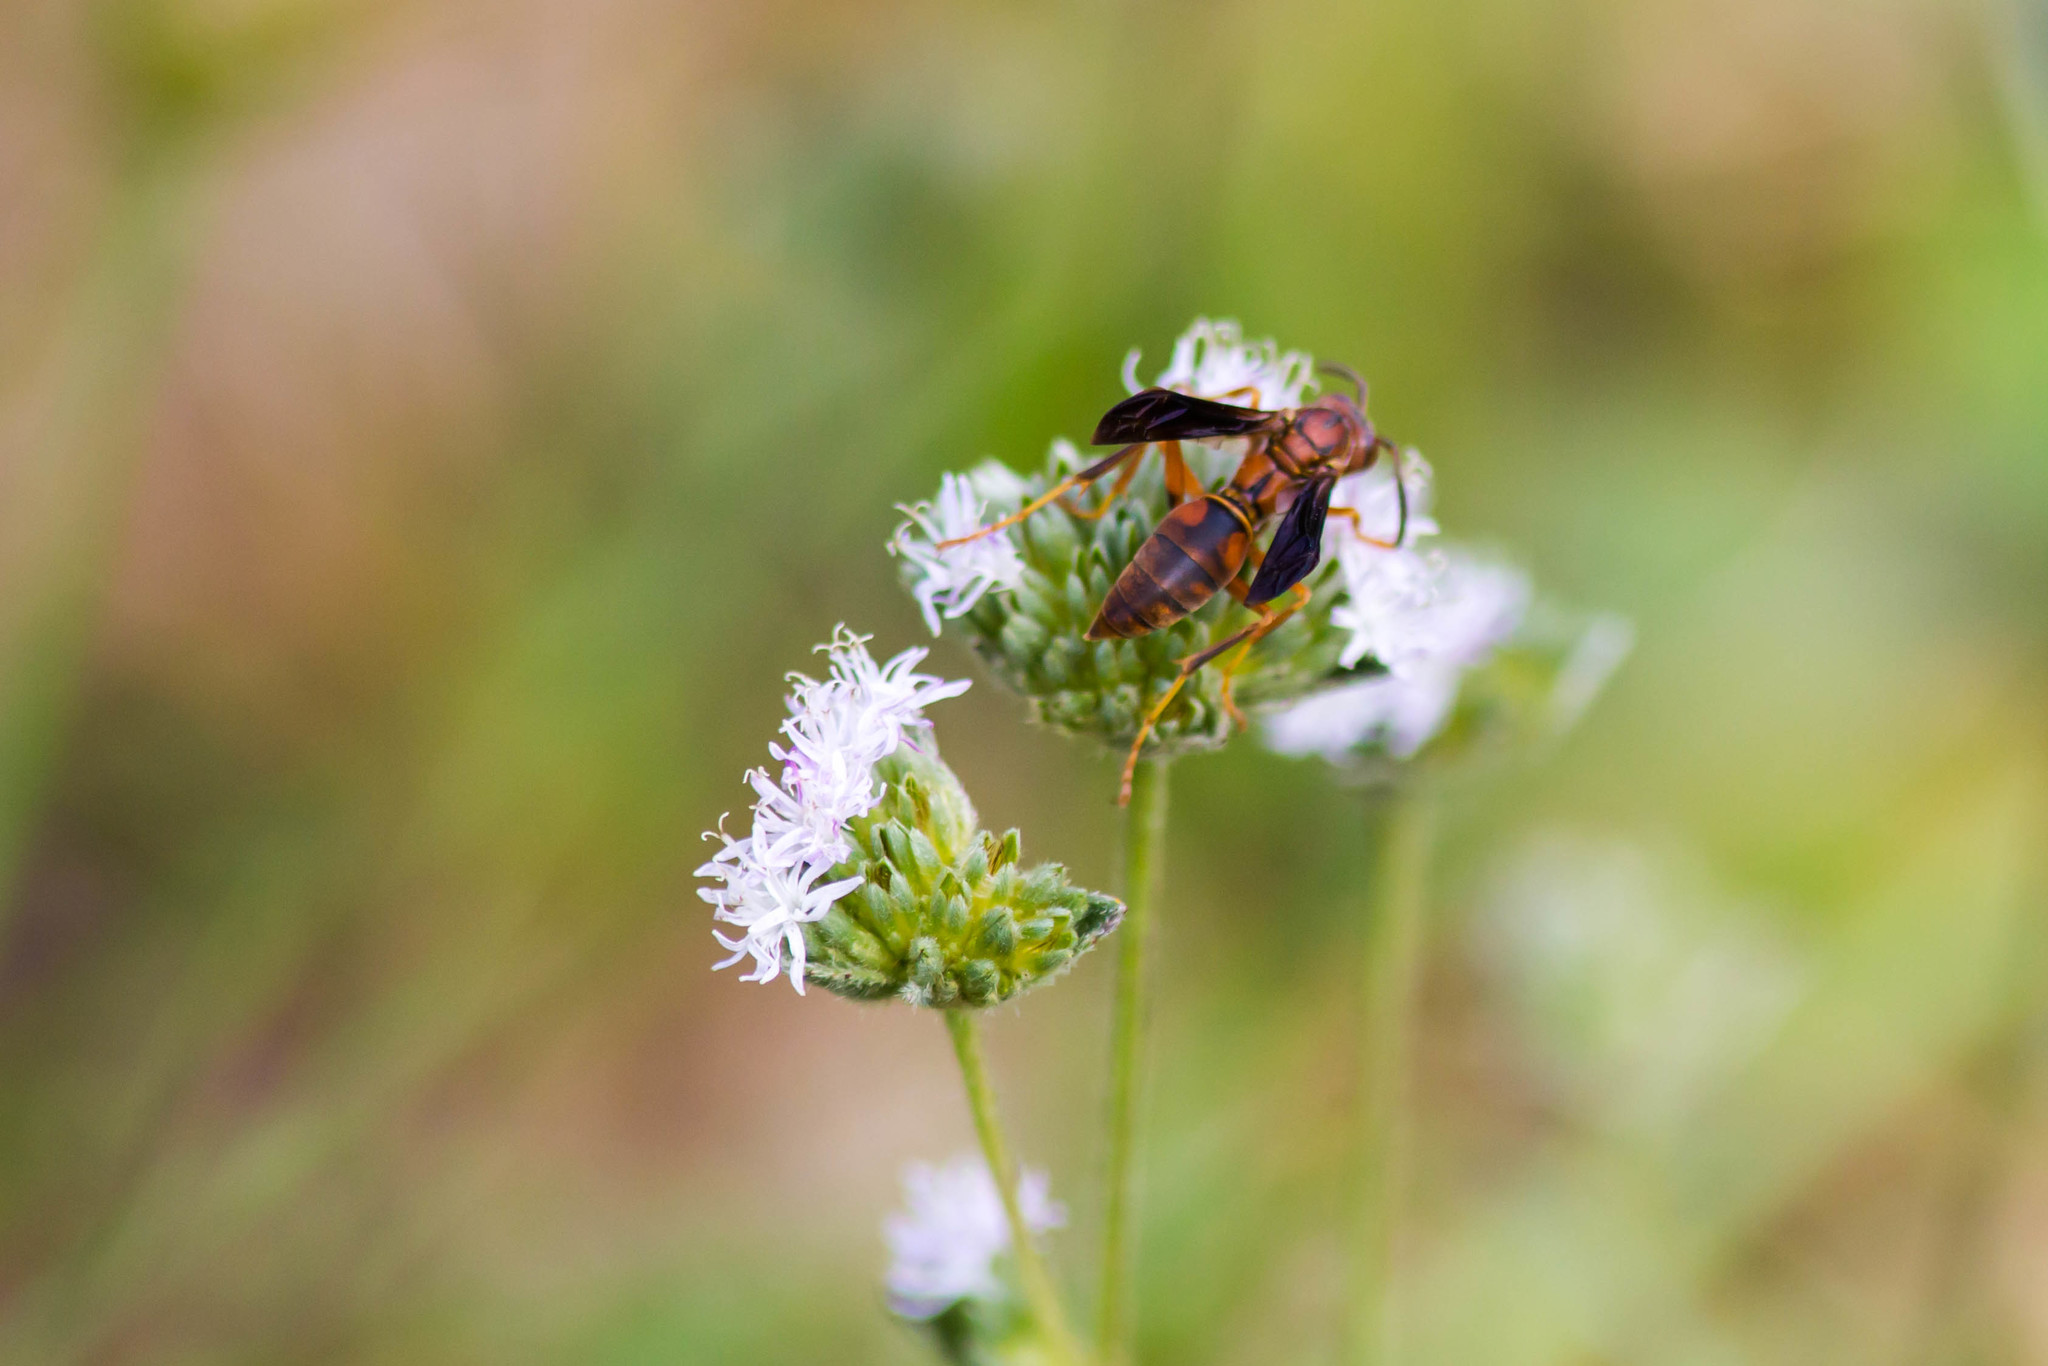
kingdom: Animalia
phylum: Arthropoda
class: Insecta
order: Hymenoptera
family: Eumenidae
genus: Polistes
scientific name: Polistes fuscatus
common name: Dark paper wasp
